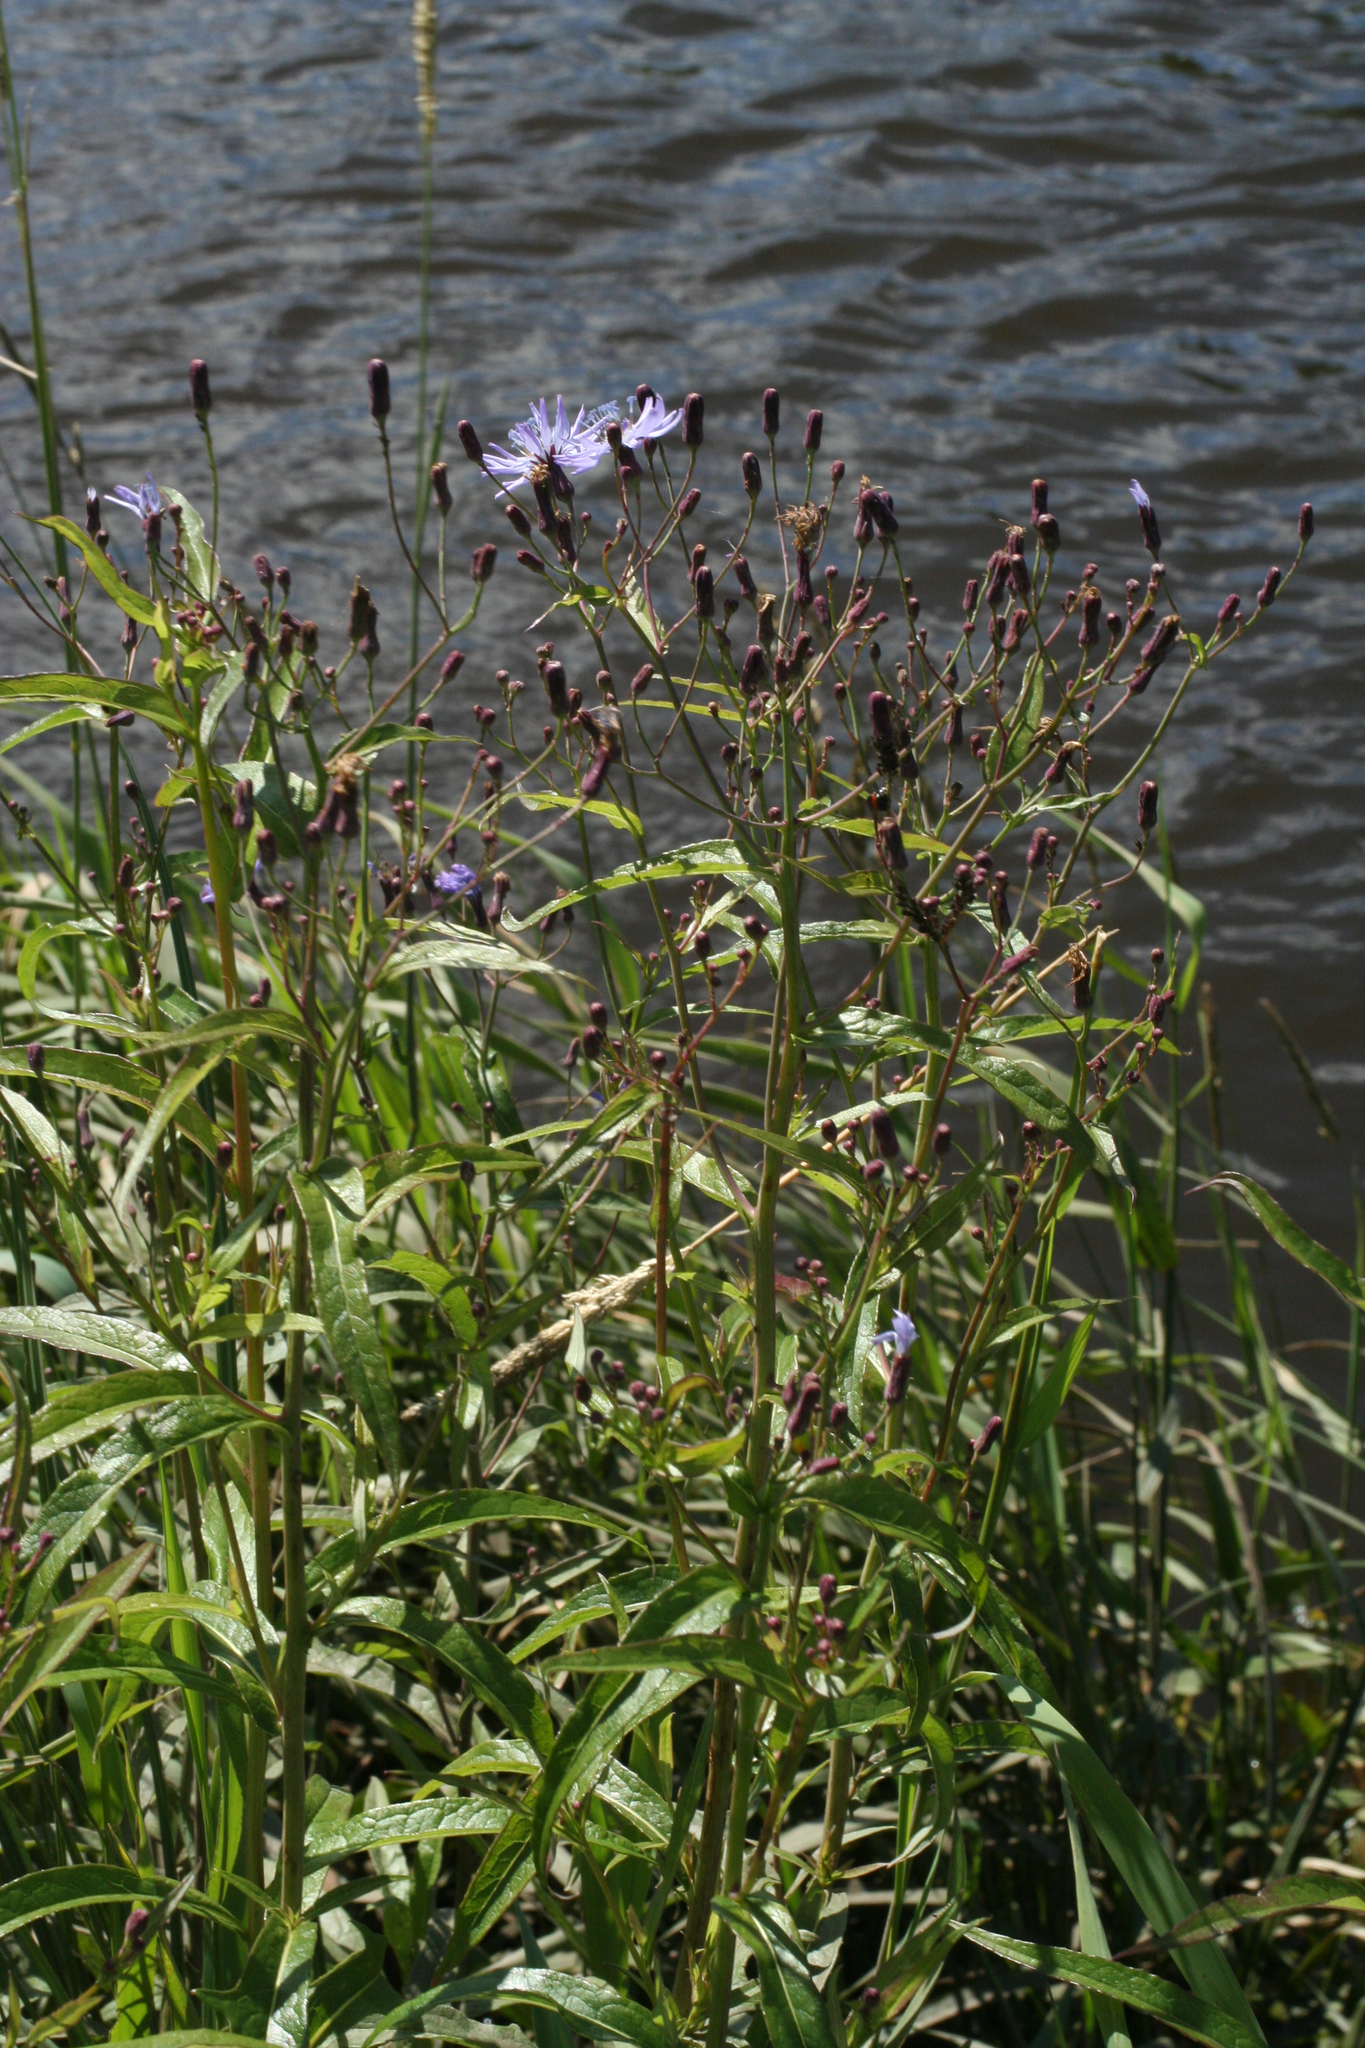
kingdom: Plantae
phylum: Tracheophyta
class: Magnoliopsida
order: Asterales
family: Asteraceae
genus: Lactuca
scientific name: Lactuca tatarica
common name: Blue lettuce
